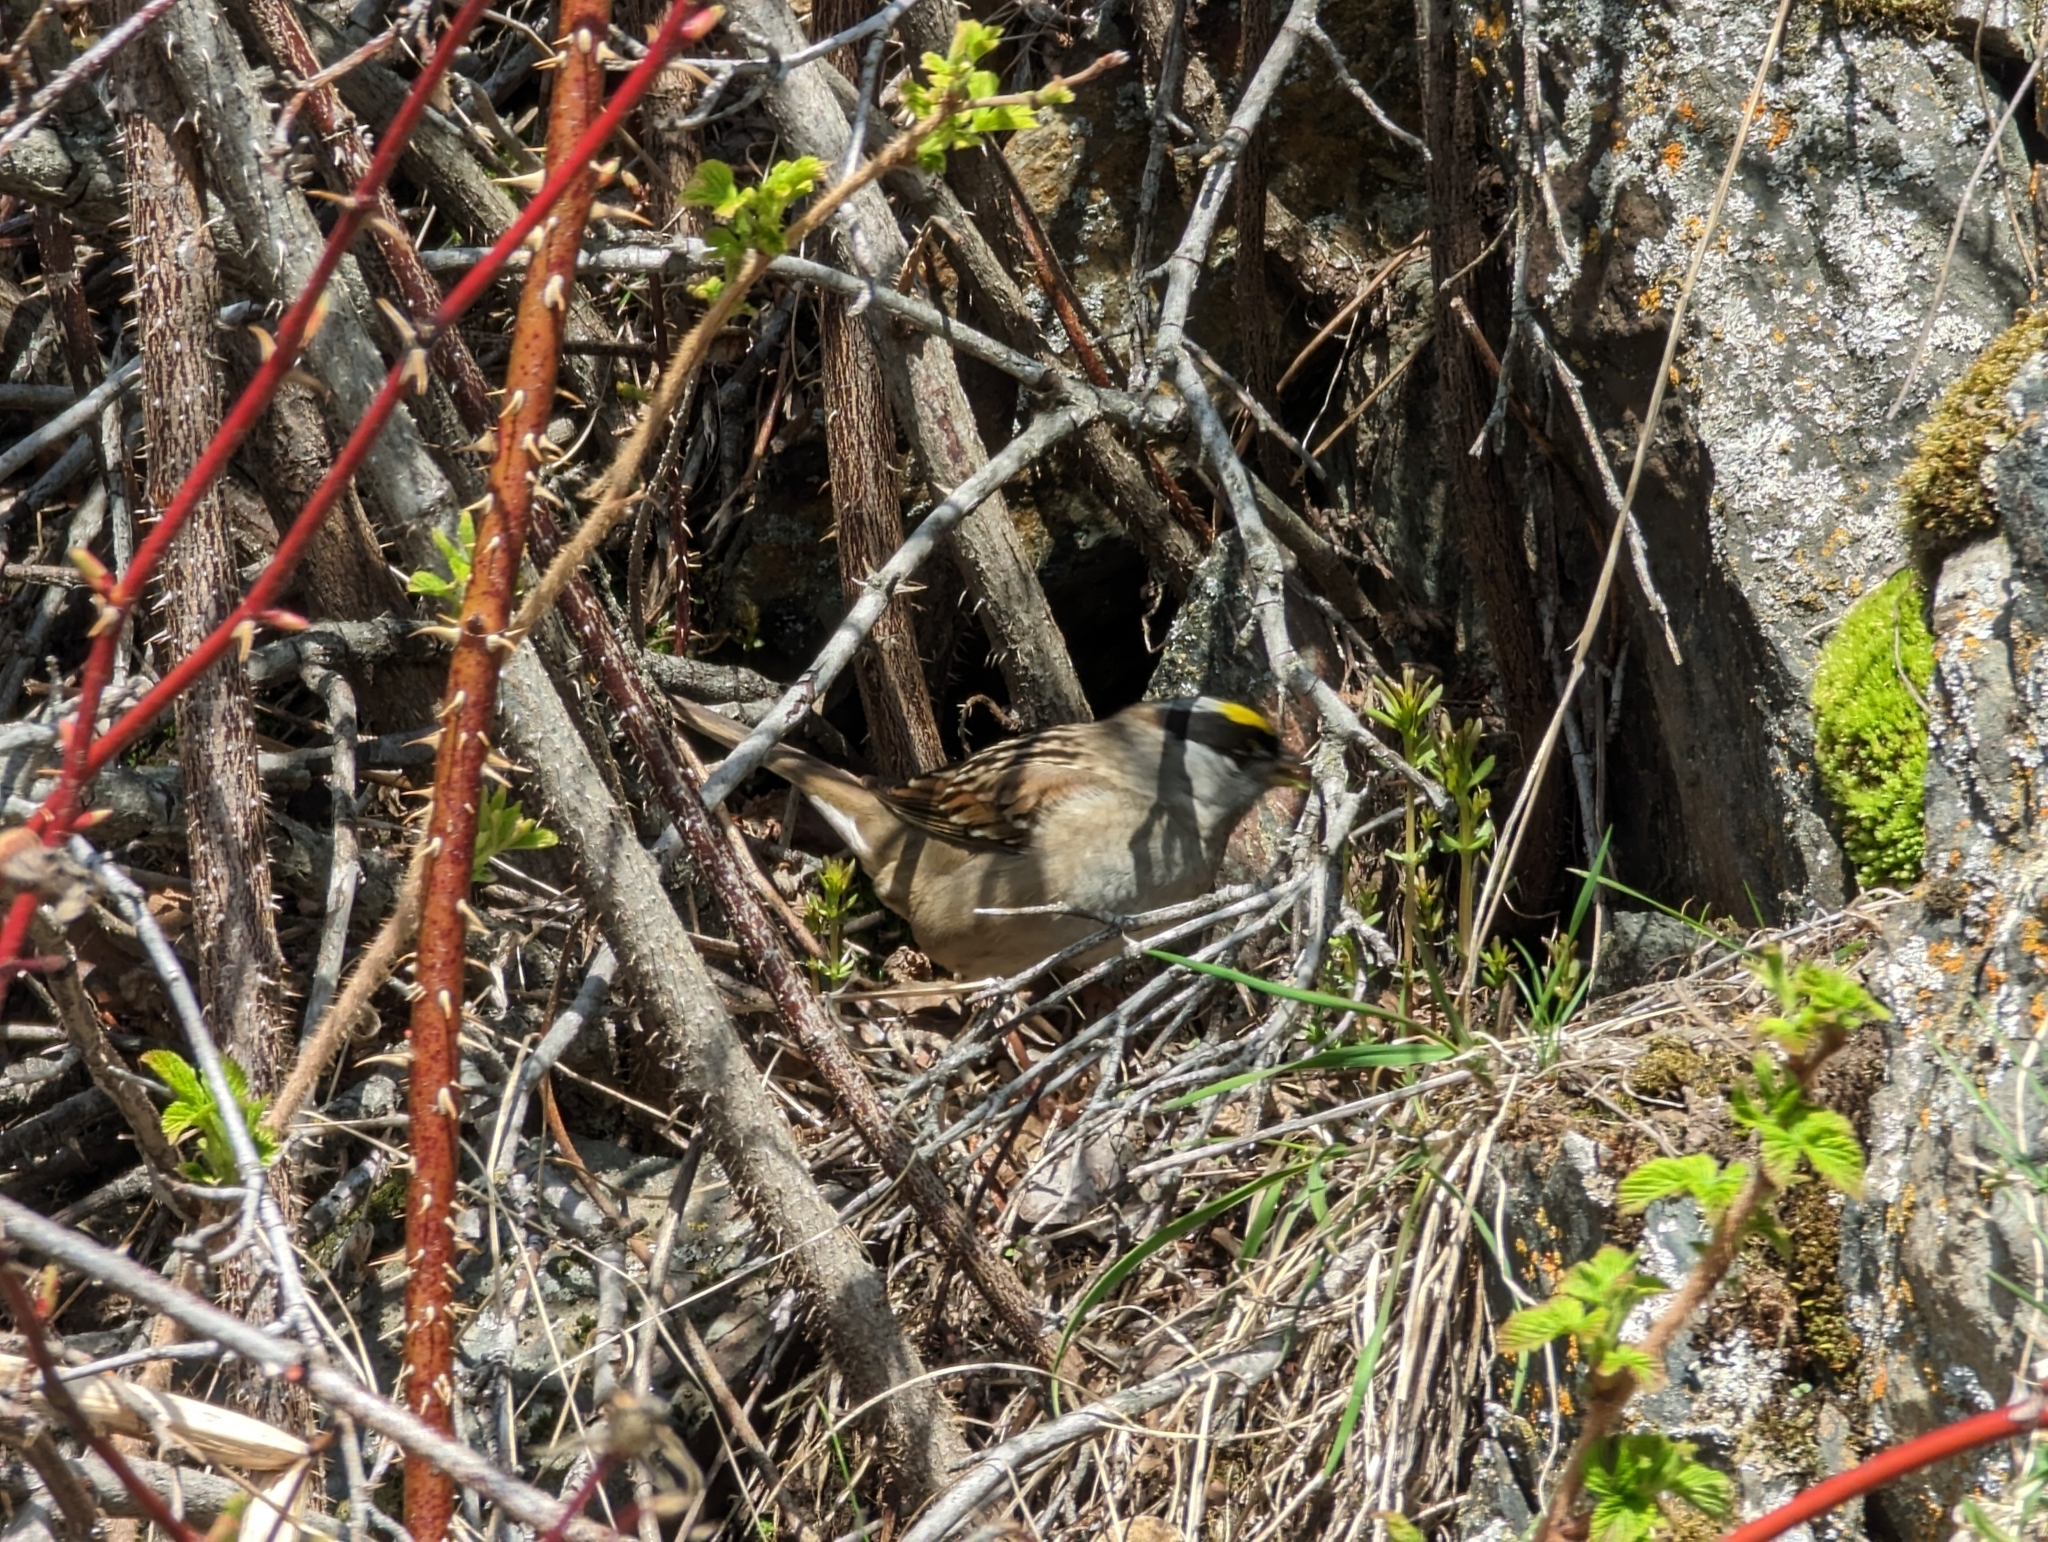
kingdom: Animalia
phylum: Chordata
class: Aves
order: Passeriformes
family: Passerellidae
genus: Zonotrichia
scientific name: Zonotrichia atricapilla
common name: Golden-crowned sparrow
